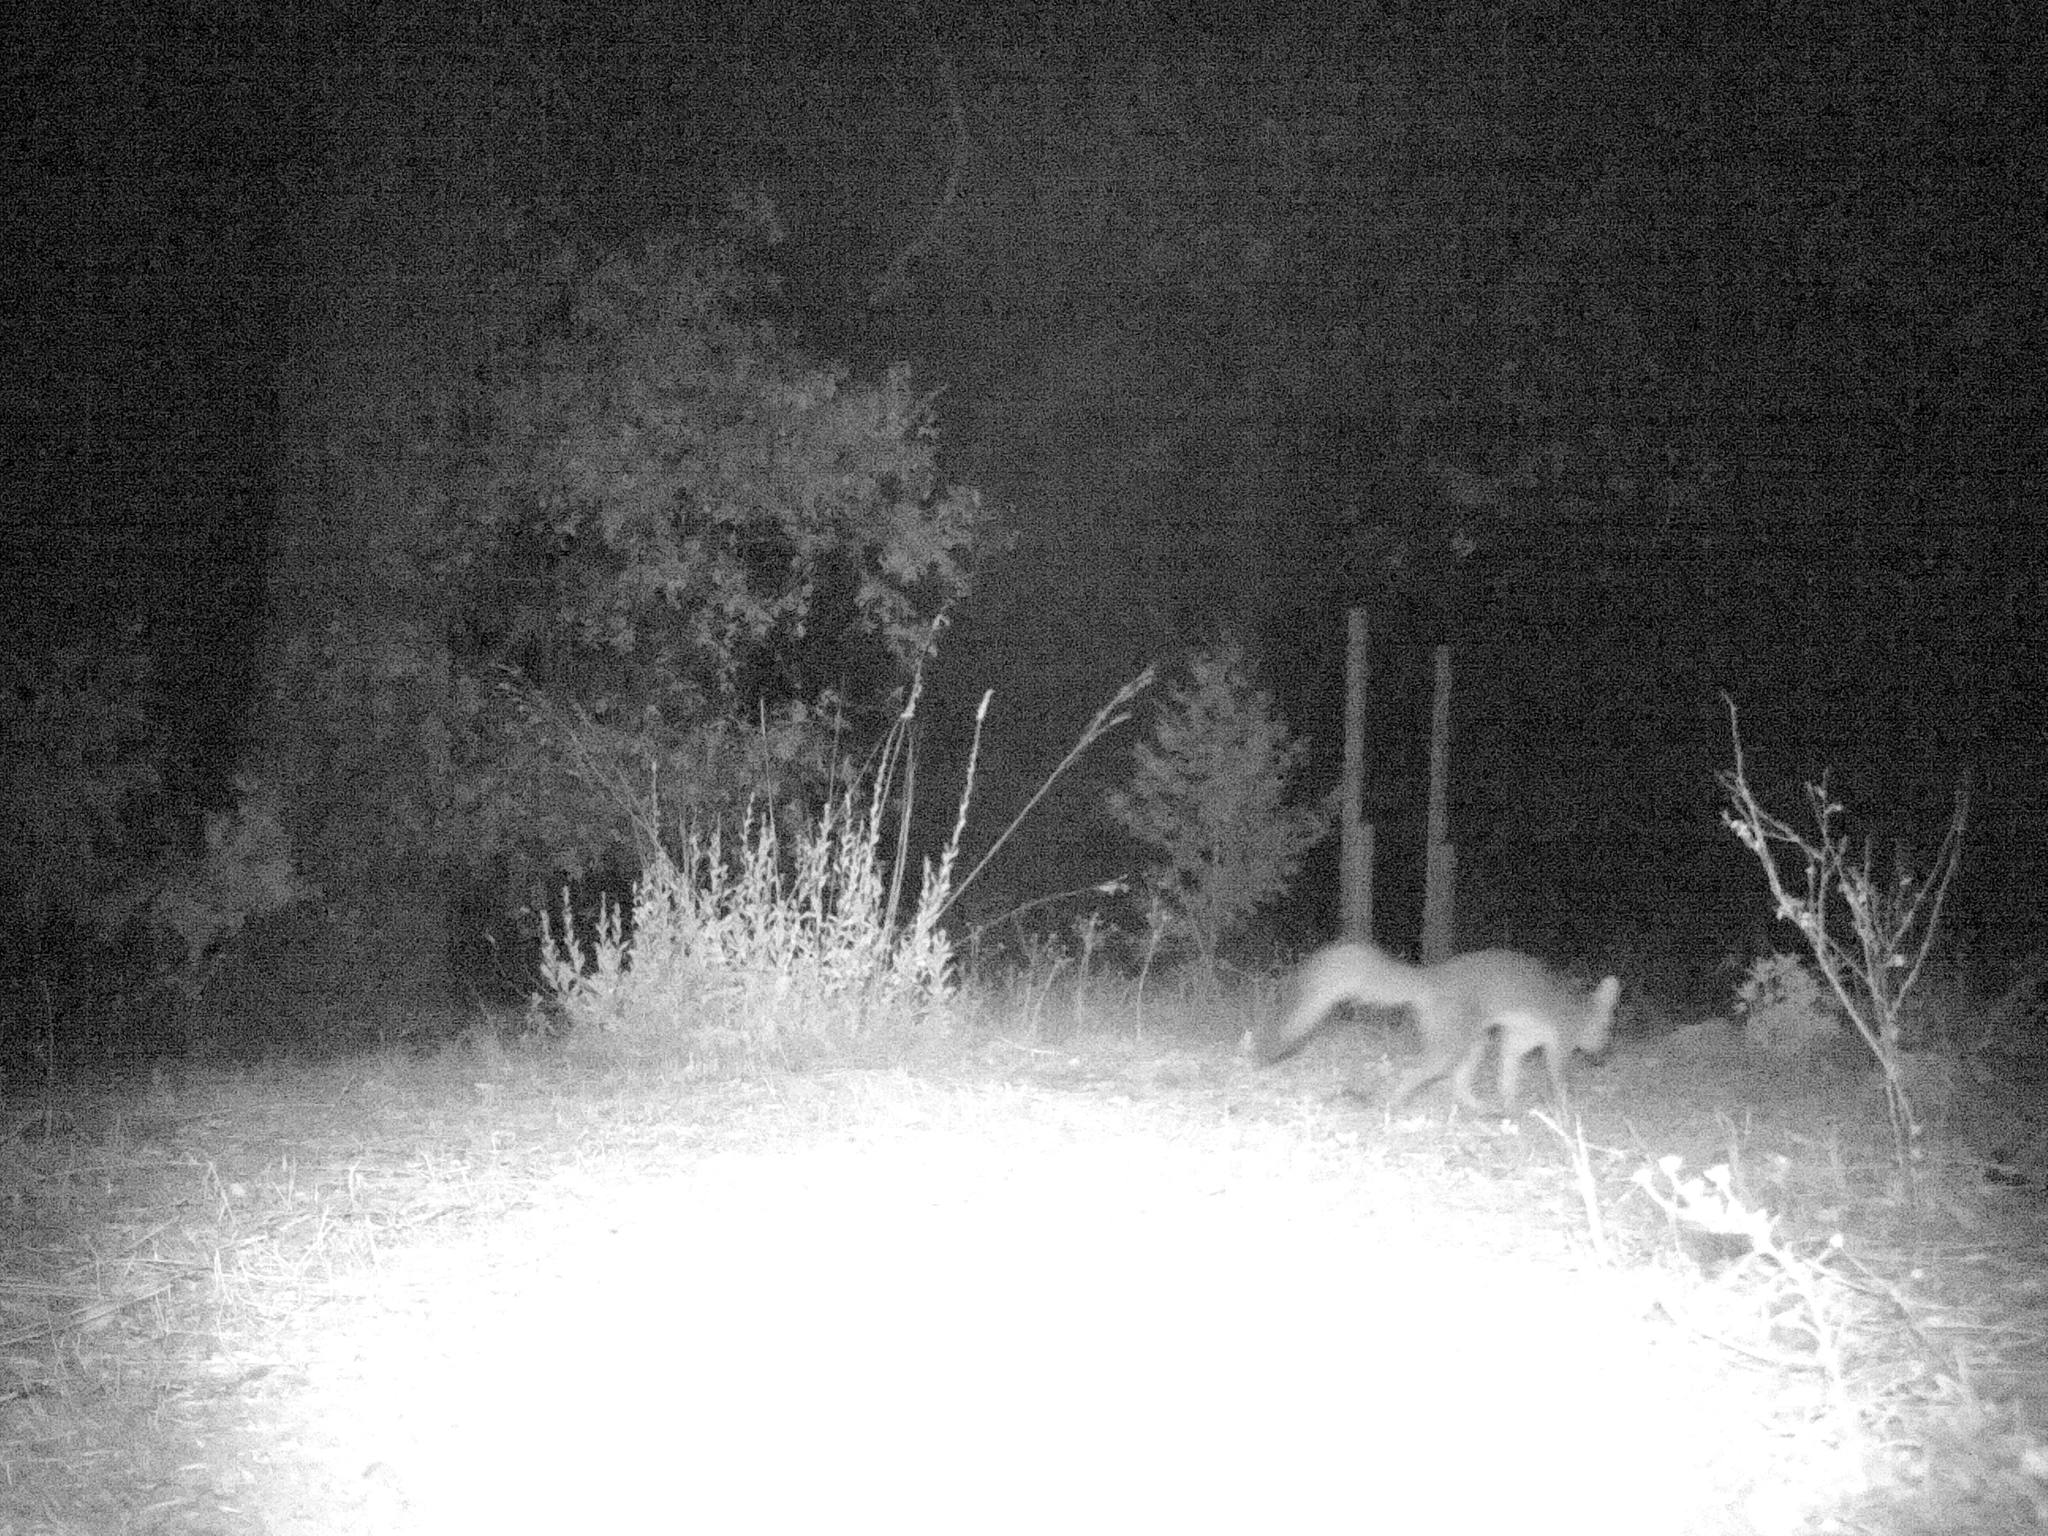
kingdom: Animalia
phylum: Chordata
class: Mammalia
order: Carnivora
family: Canidae
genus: Urocyon
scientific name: Urocyon cinereoargenteus
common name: Gray fox
